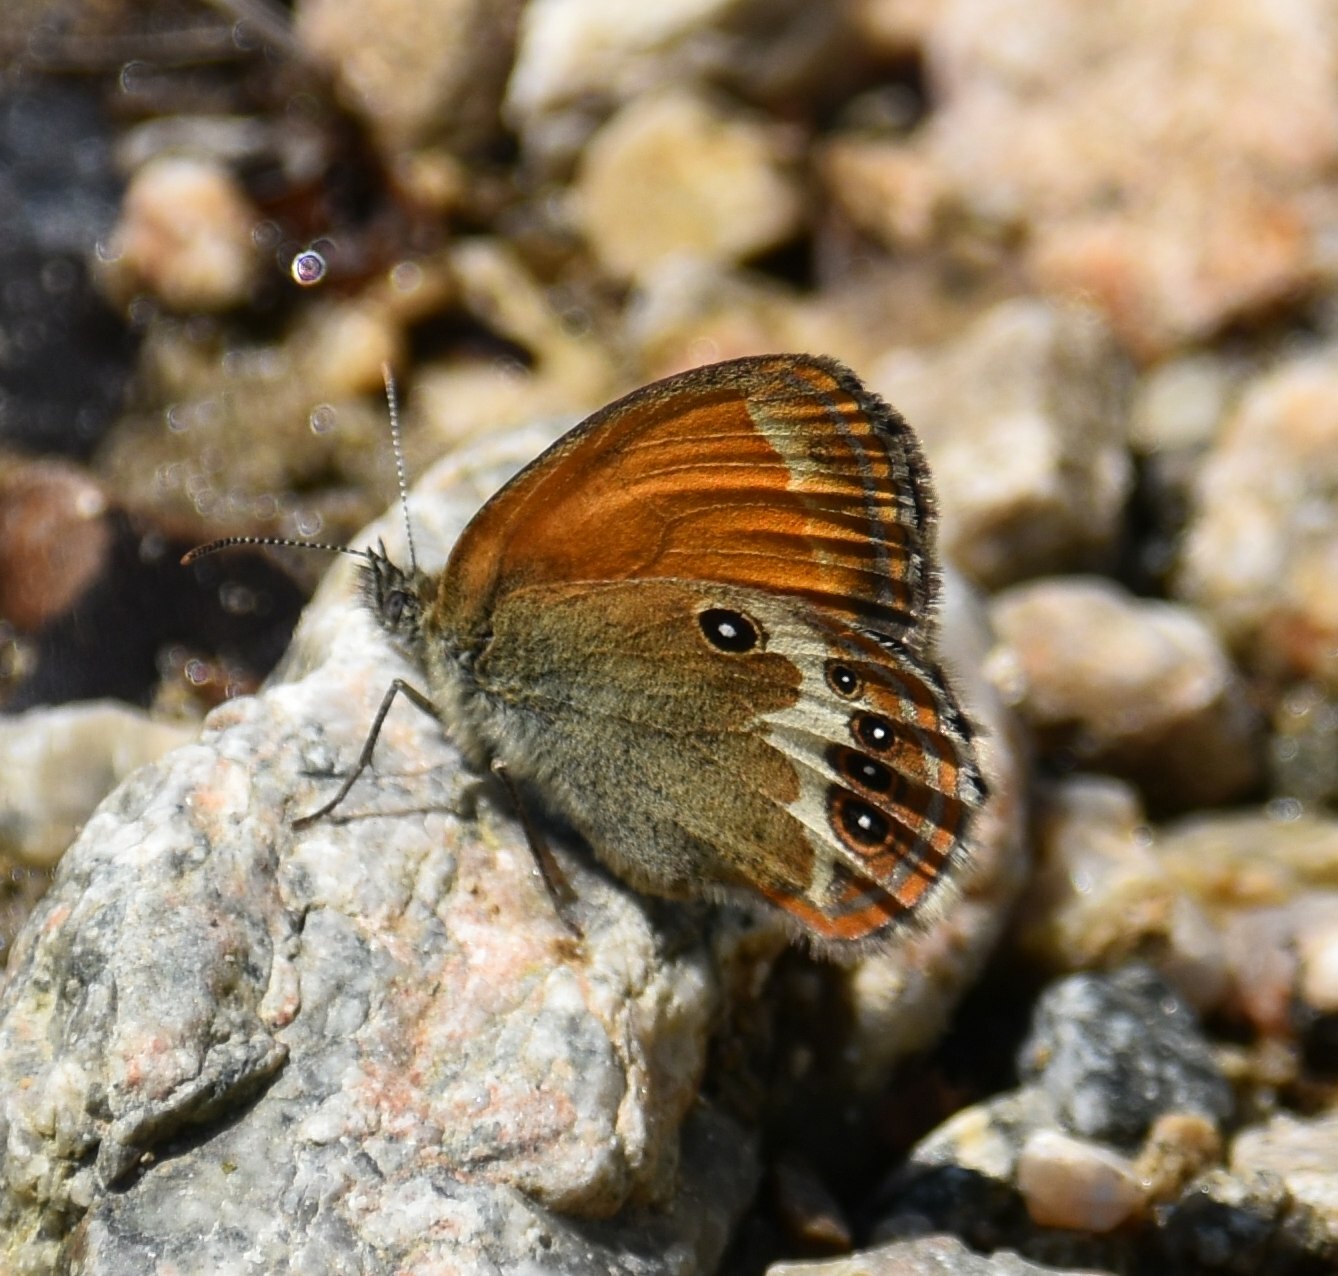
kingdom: Animalia
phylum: Arthropoda
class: Insecta
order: Lepidoptera
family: Nymphalidae
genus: Coenonympha
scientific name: Coenonympha arcania
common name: Pearly heath
